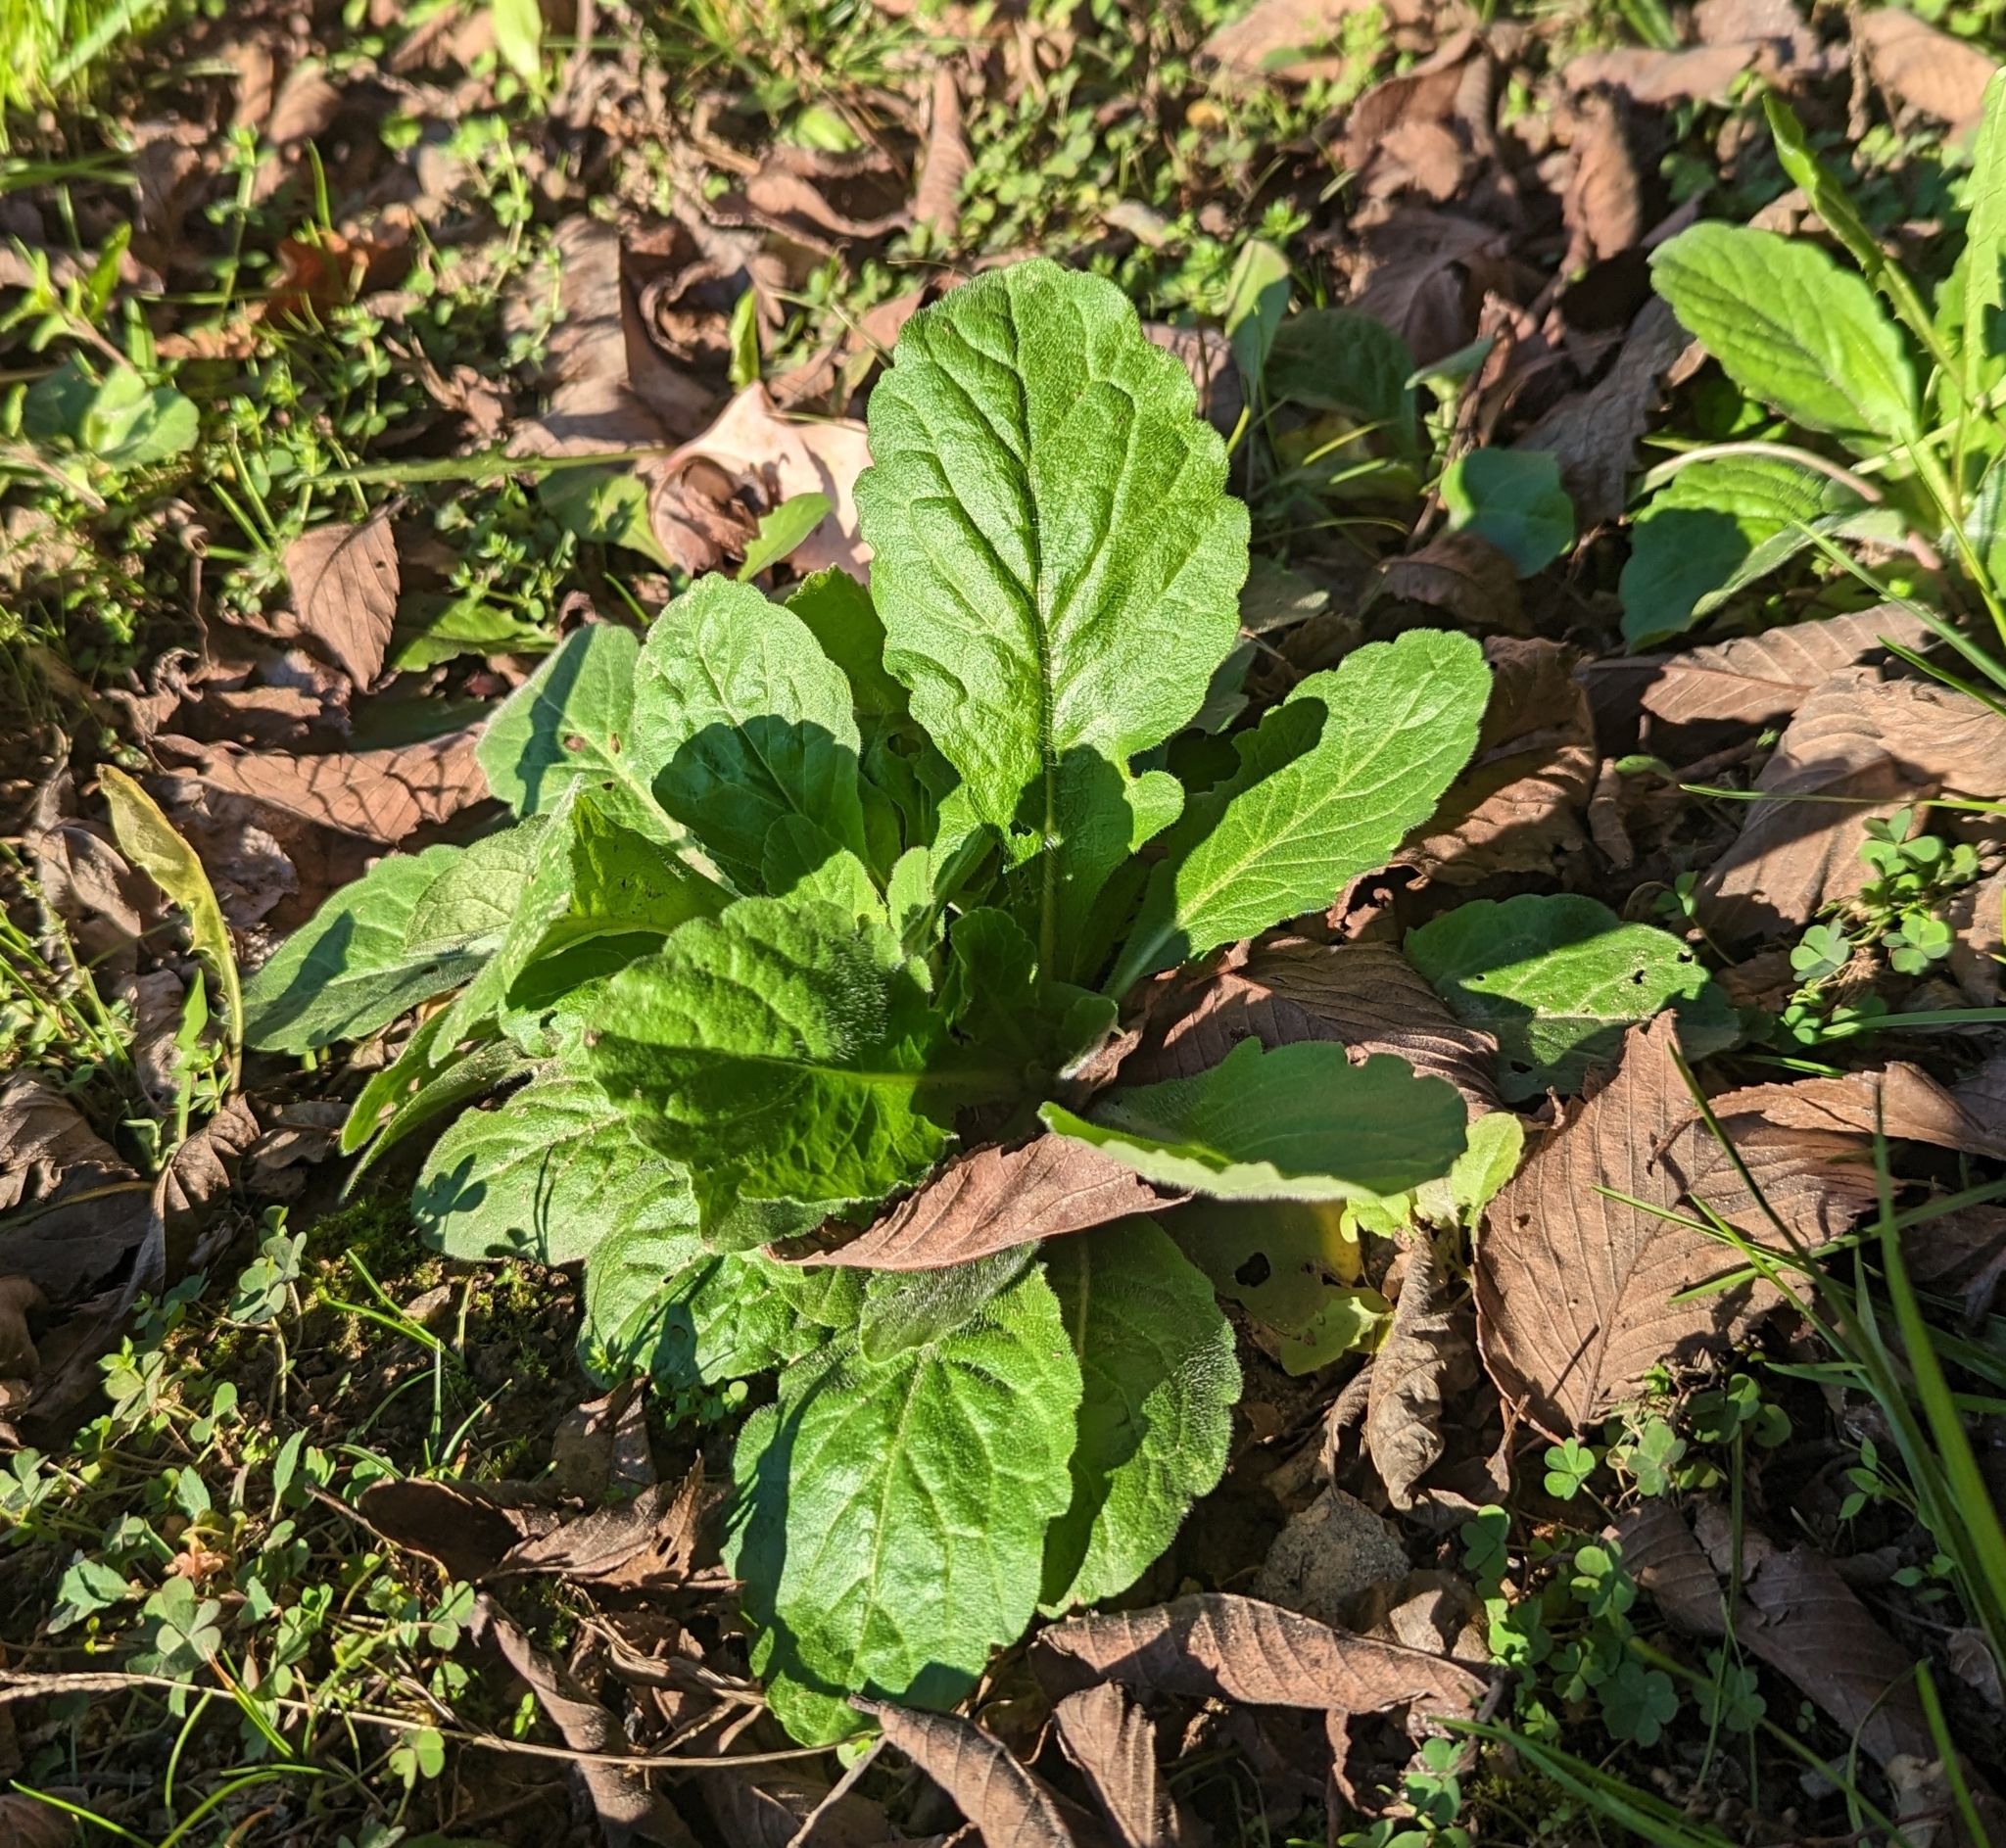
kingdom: Plantae
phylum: Tracheophyta
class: Magnoliopsida
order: Asterales
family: Asteraceae
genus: Erigeron
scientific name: Erigeron philadelphicus
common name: Robin's-plantain
